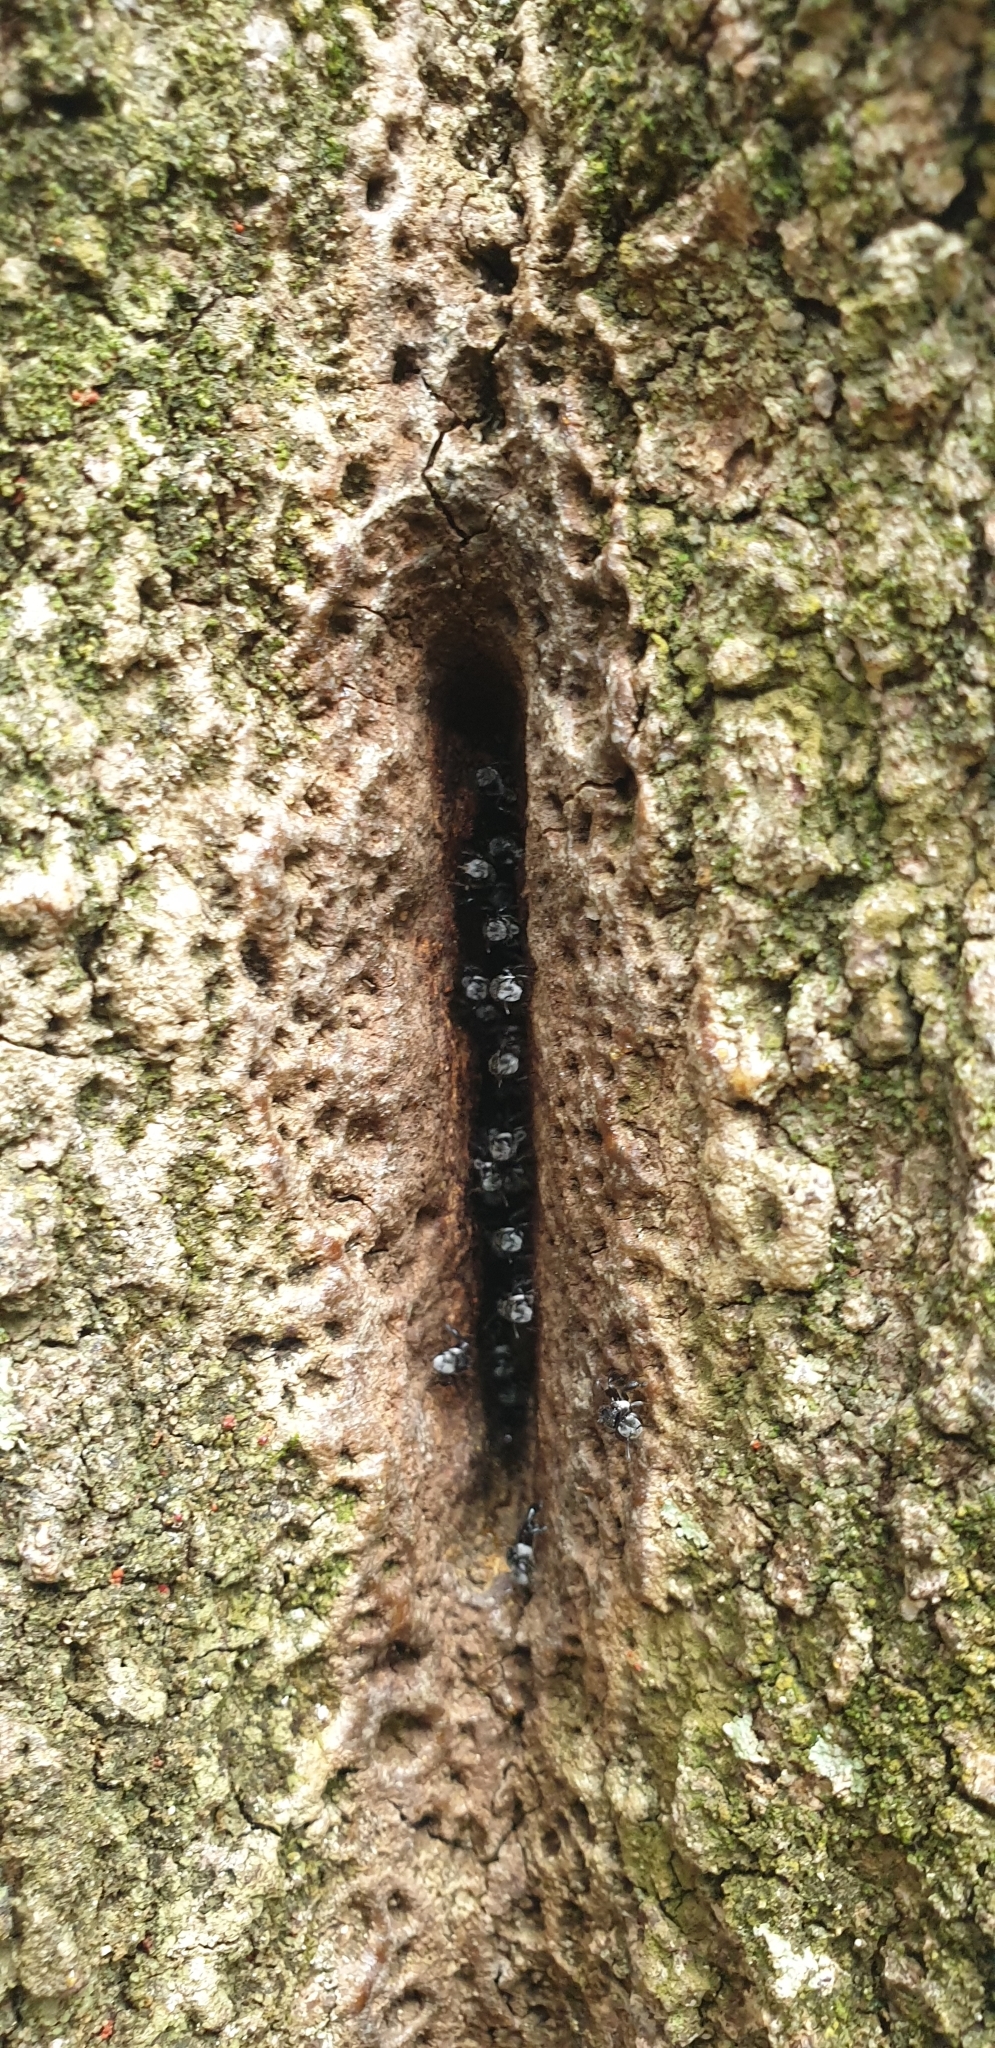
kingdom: Animalia
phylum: Arthropoda
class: Insecta
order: Hymenoptera
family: Apidae
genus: Tetragonula
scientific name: Tetragonula carbonaria
